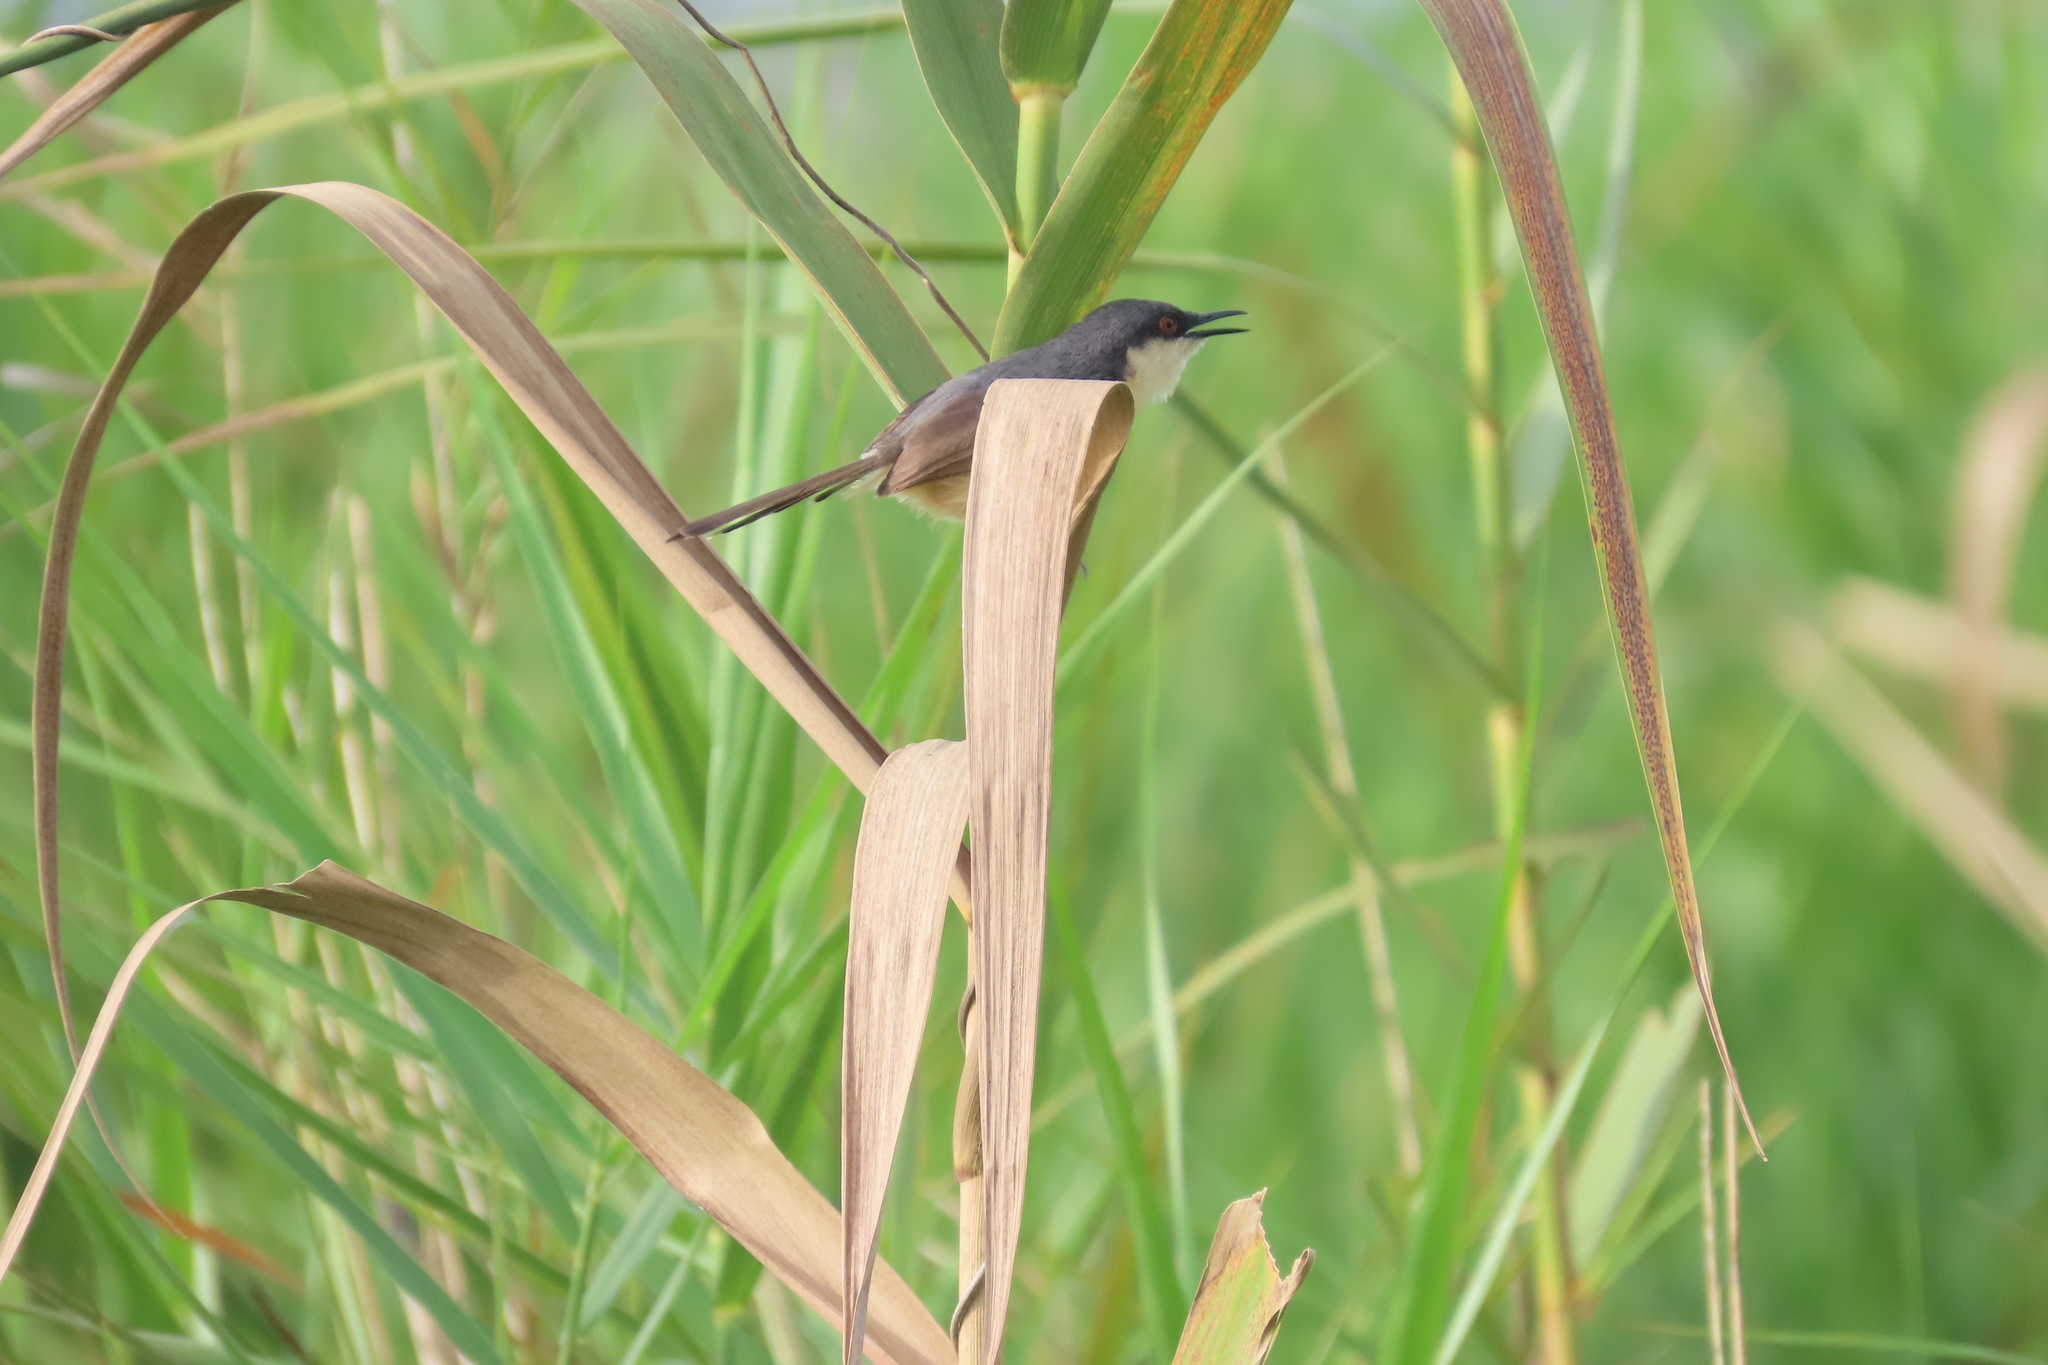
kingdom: Animalia
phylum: Chordata
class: Aves
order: Passeriformes
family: Cisticolidae
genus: Prinia
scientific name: Prinia socialis
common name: Ashy prinia
